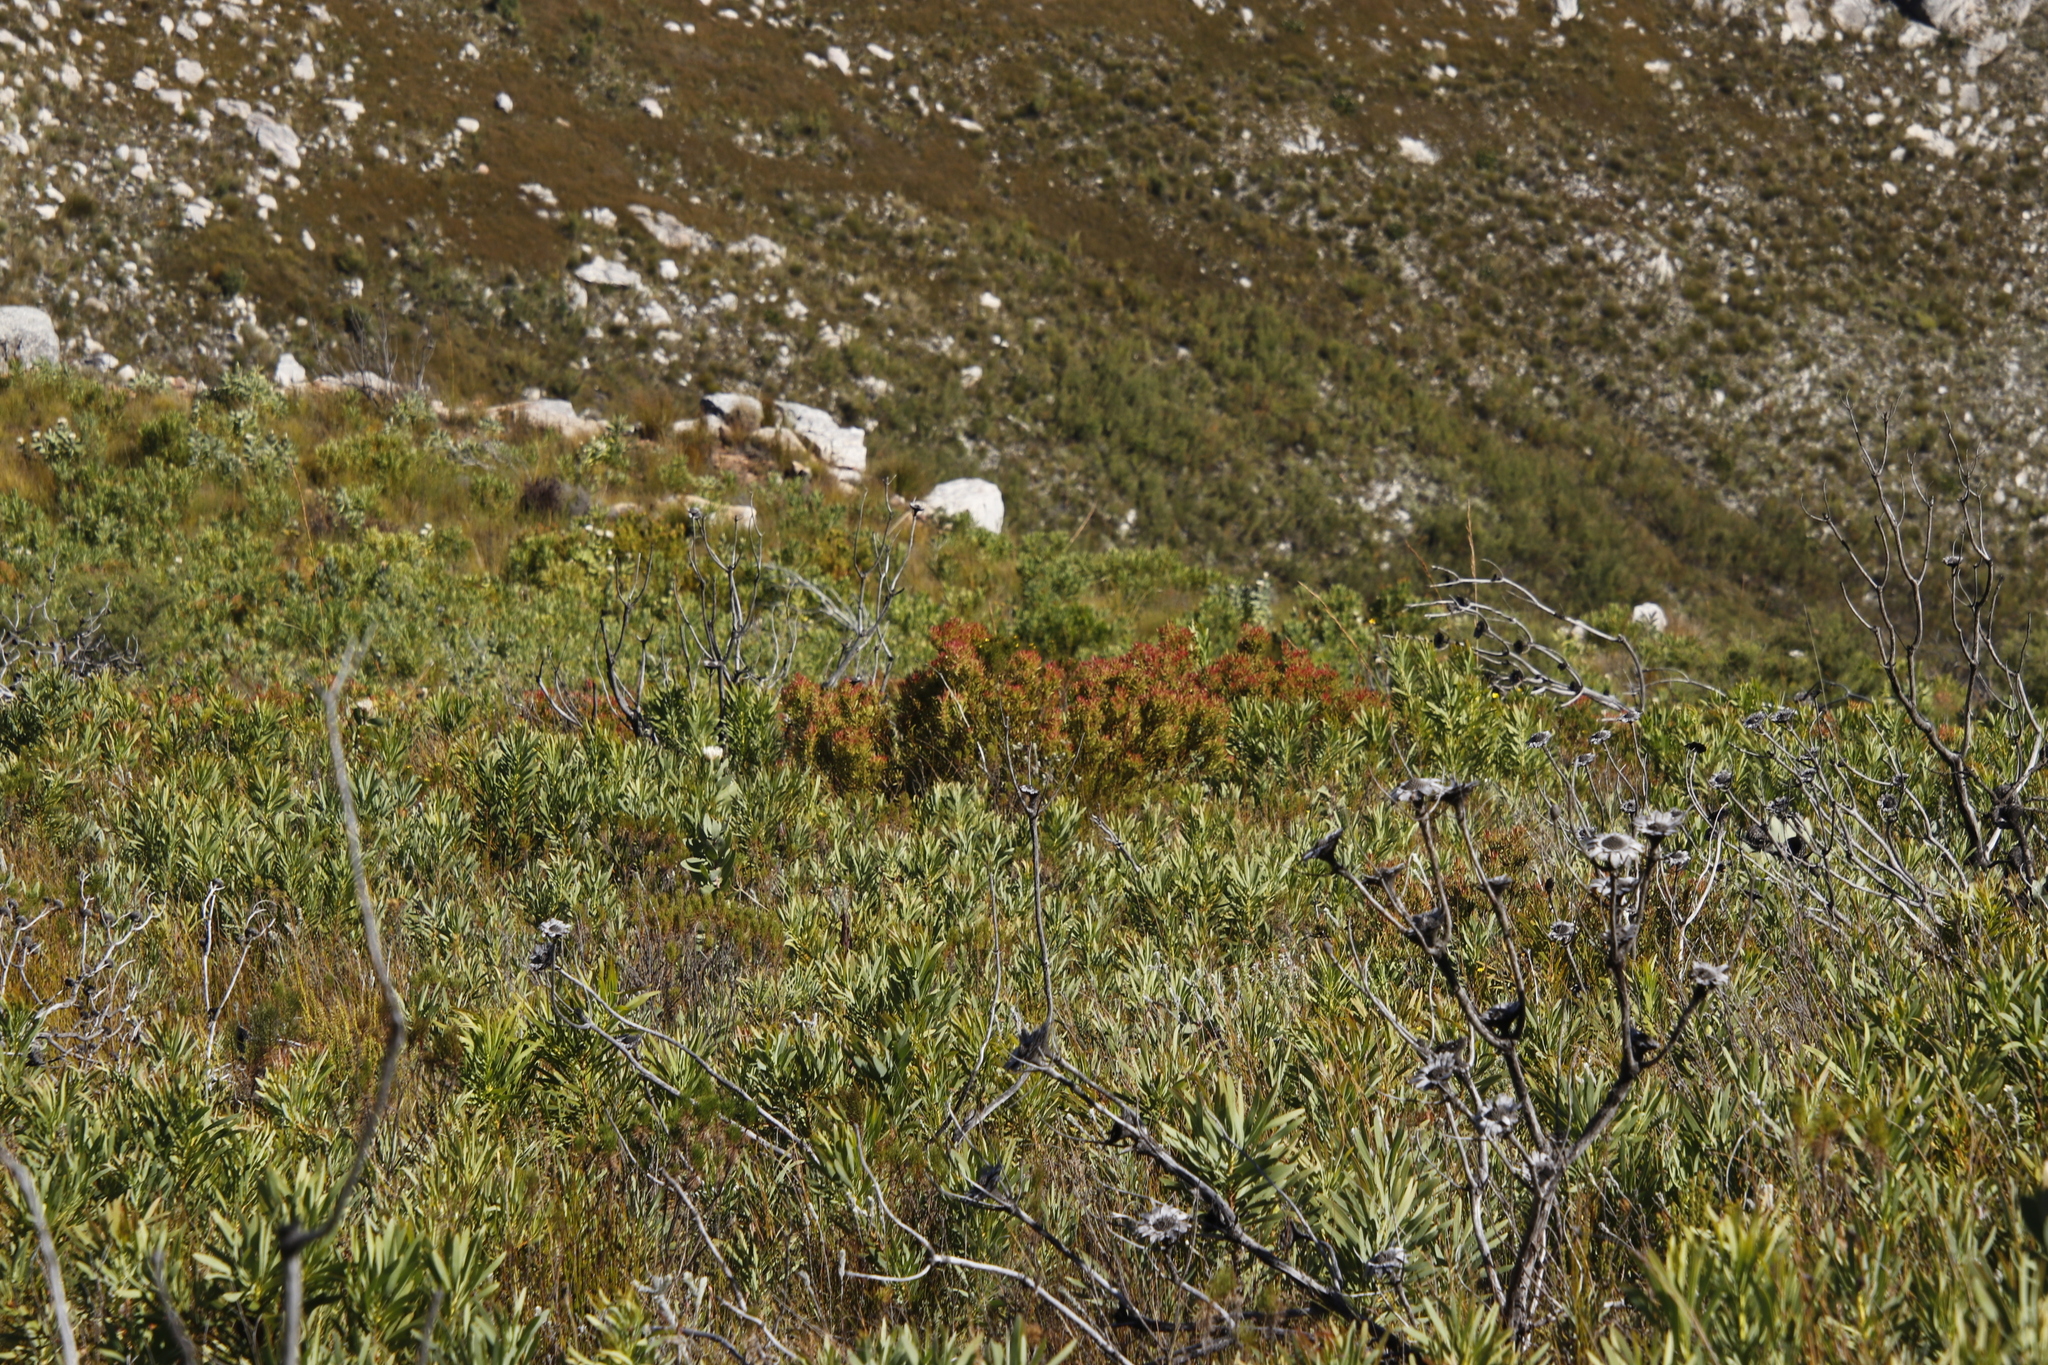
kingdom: Plantae
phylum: Tracheophyta
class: Magnoliopsida
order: Proteales
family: Proteaceae
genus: Leucadendron
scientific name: Leucadendron spissifolium
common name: Spear-leaf conebush
